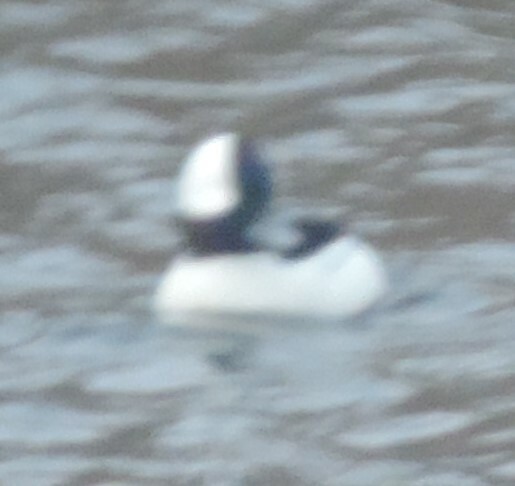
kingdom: Animalia
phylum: Chordata
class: Aves
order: Anseriformes
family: Anatidae
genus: Bucephala
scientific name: Bucephala albeola
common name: Bufflehead
